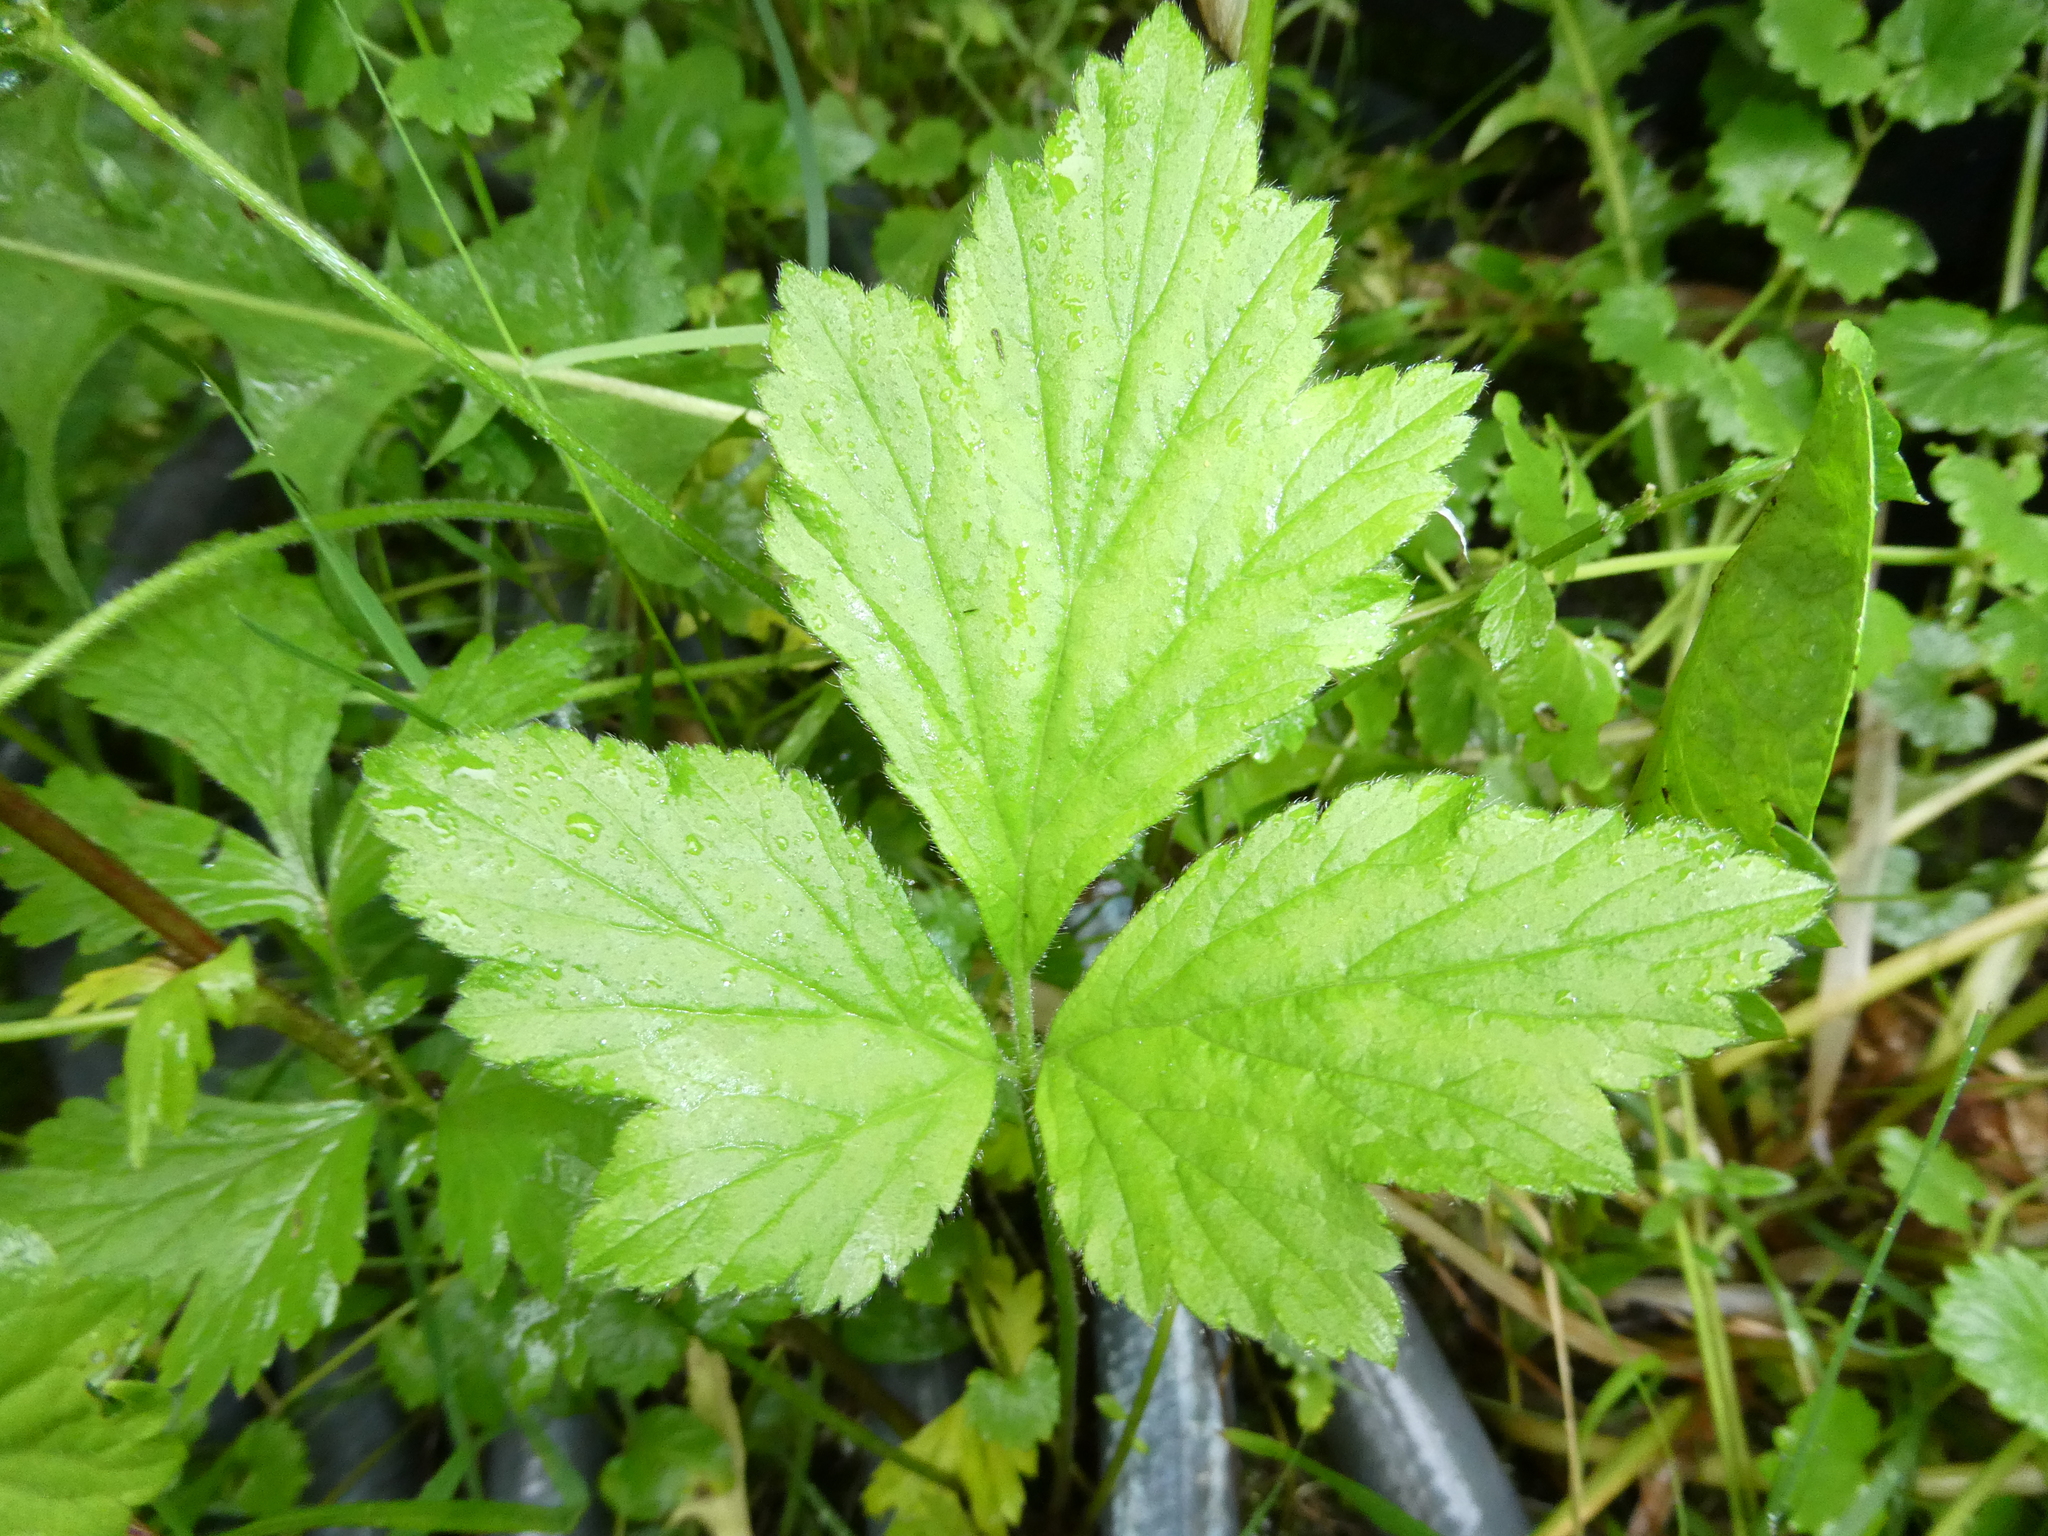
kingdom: Plantae
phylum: Tracheophyta
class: Magnoliopsida
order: Rosales
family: Rosaceae
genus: Geum
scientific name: Geum canadense
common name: White avens
